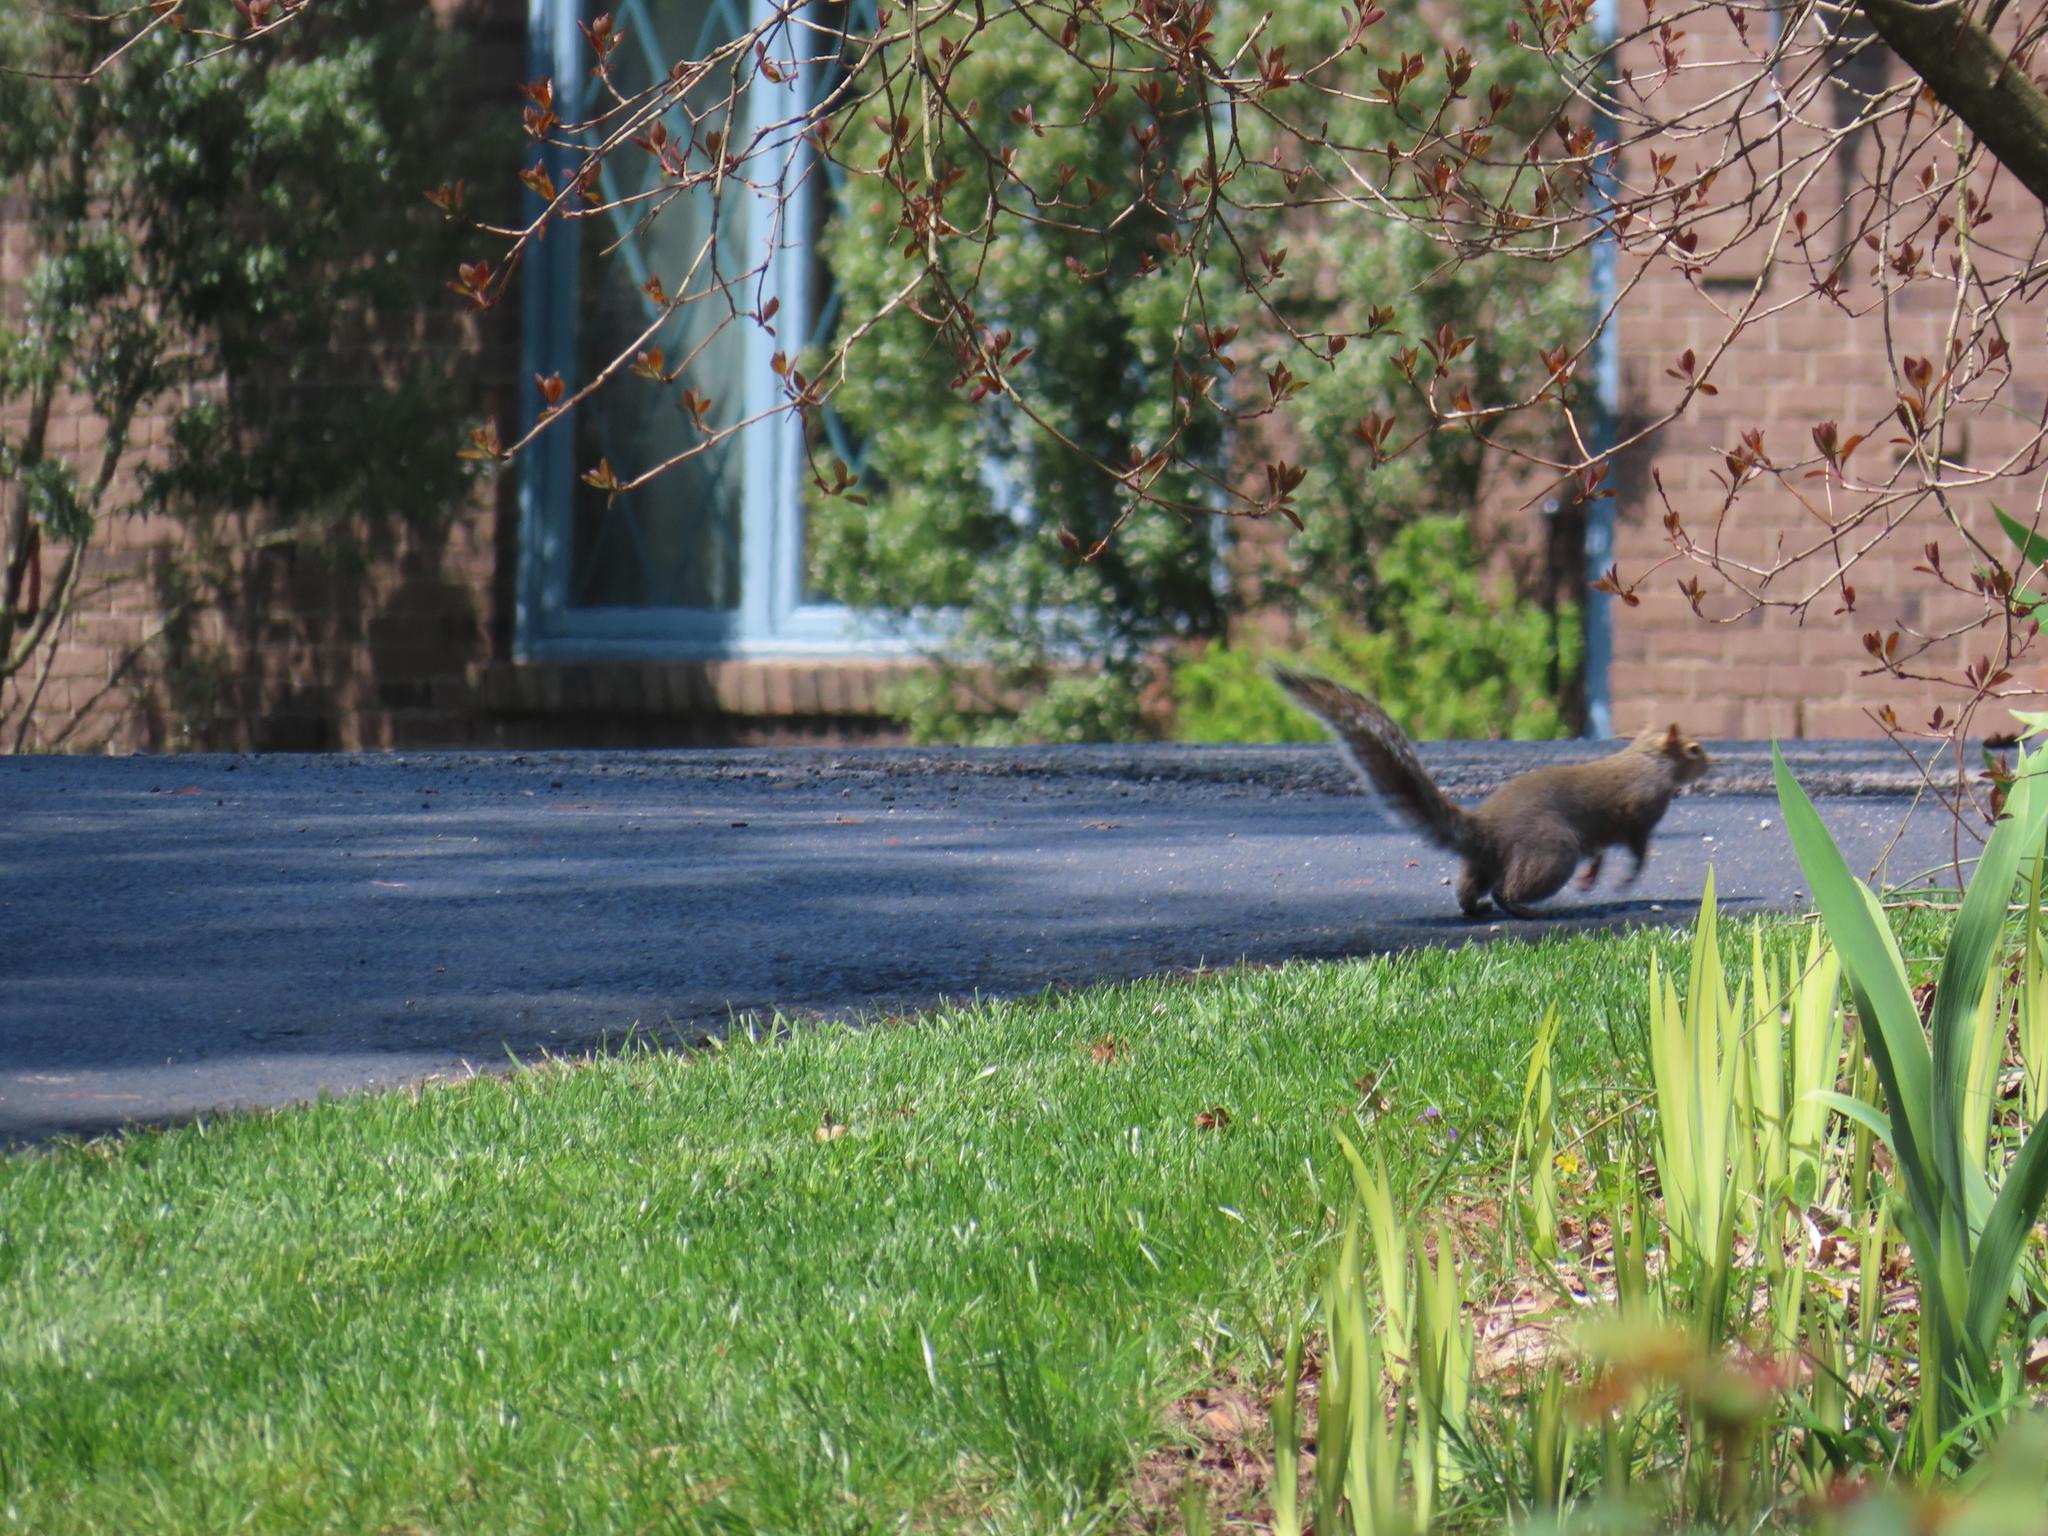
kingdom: Animalia
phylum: Chordata
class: Mammalia
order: Rodentia
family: Sciuridae
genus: Sciurus
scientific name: Sciurus carolinensis
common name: Eastern gray squirrel
